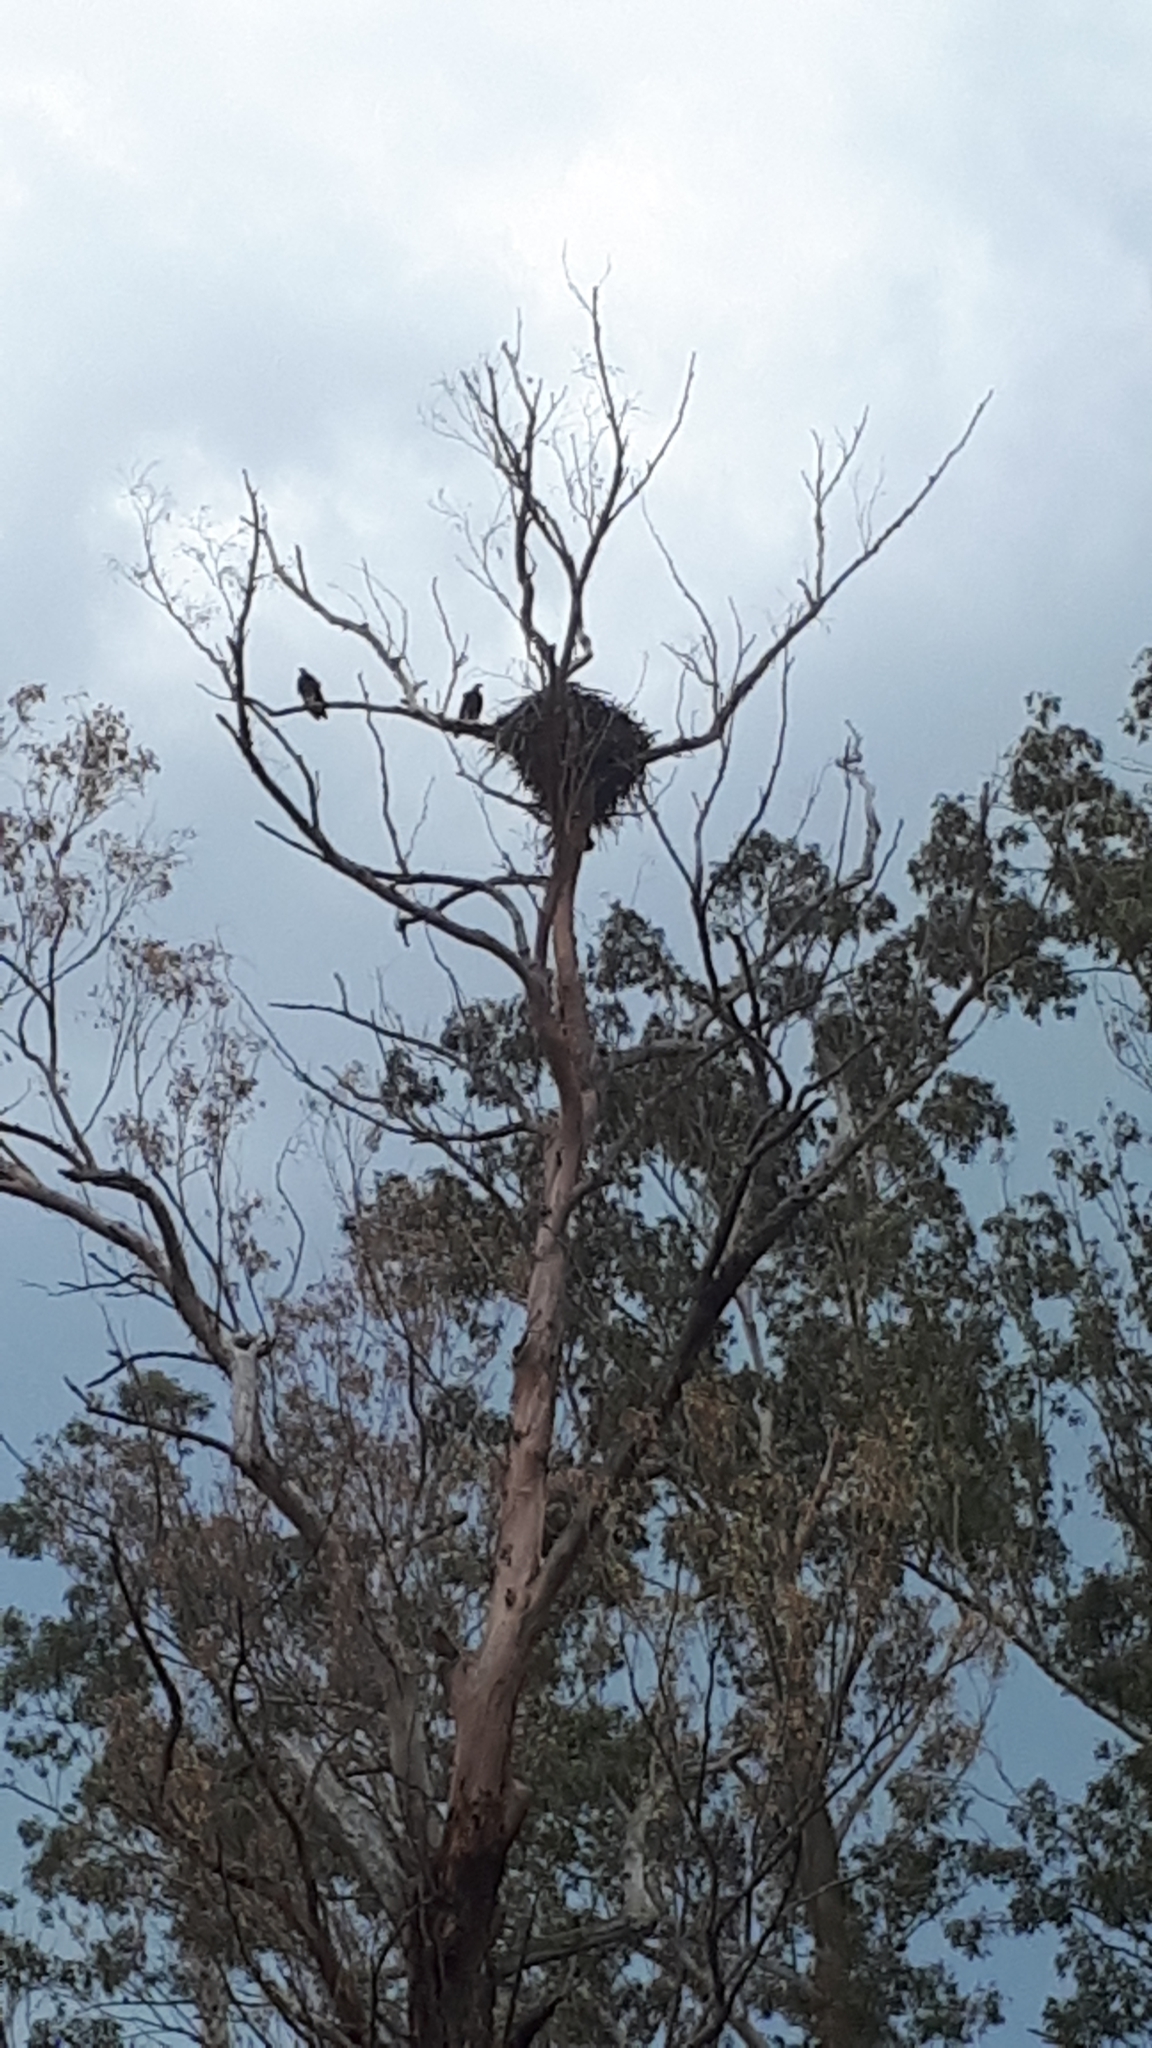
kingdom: Animalia
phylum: Chordata
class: Aves
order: Accipitriformes
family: Accipitridae
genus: Haliaeetus
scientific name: Haliaeetus leucogaster
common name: White-bellied sea eagle
